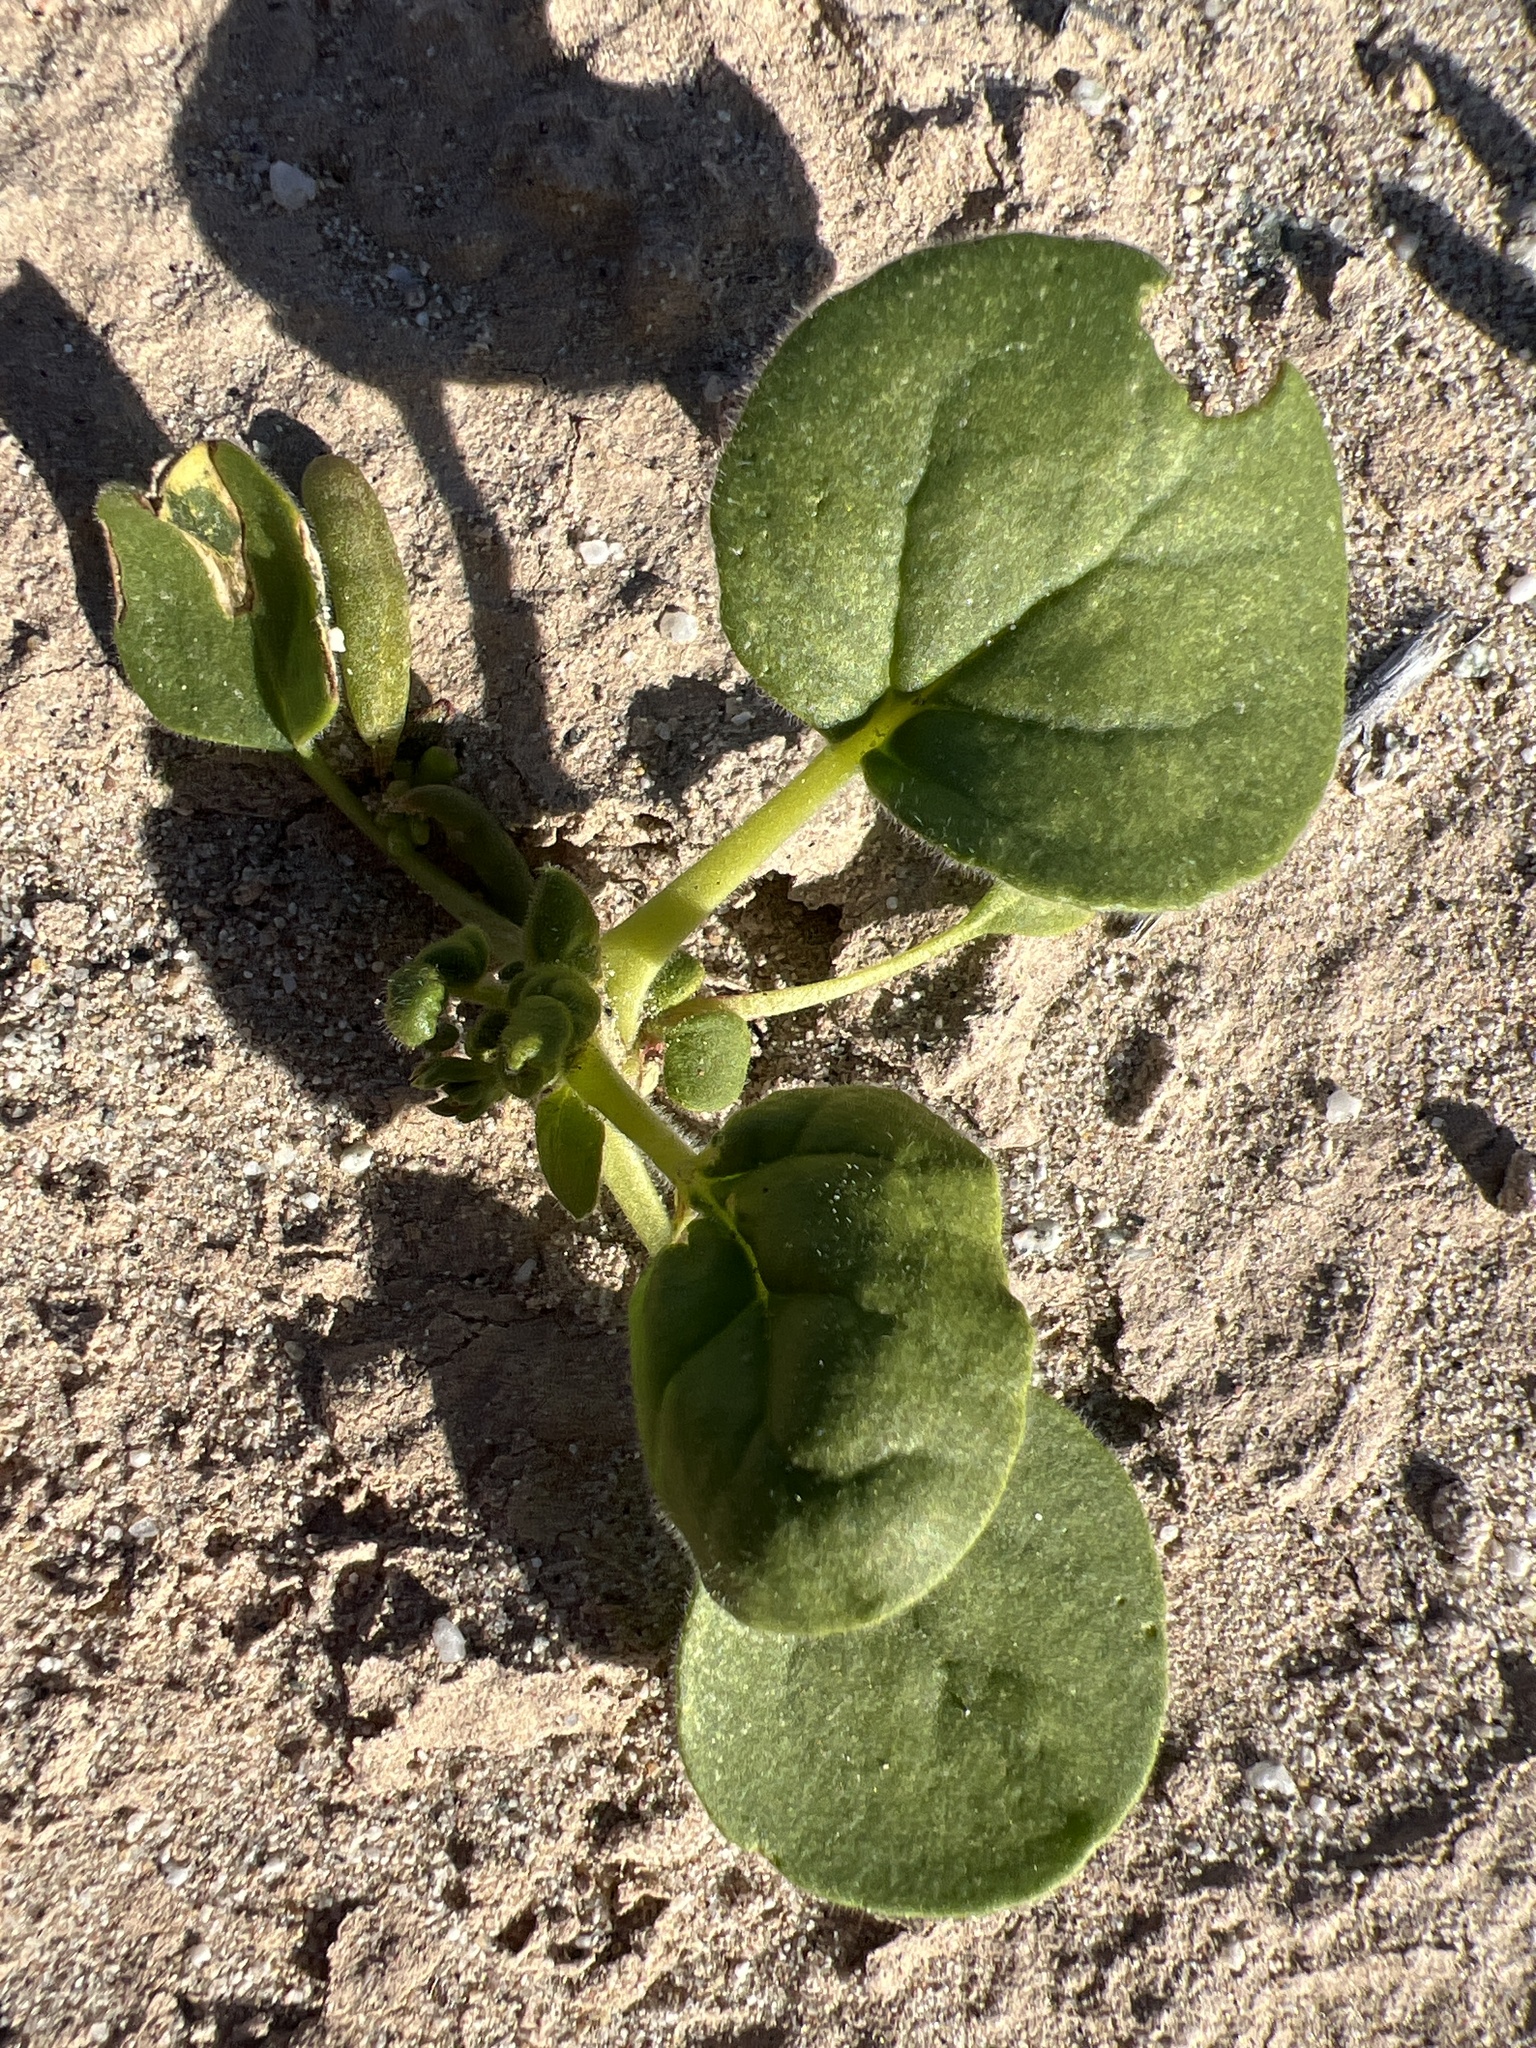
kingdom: Plantae
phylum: Tracheophyta
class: Magnoliopsida
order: Caryophyllales
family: Polygonaceae
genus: Eriogonum
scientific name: Eriogonum trichopes
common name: Little desert trumpet
